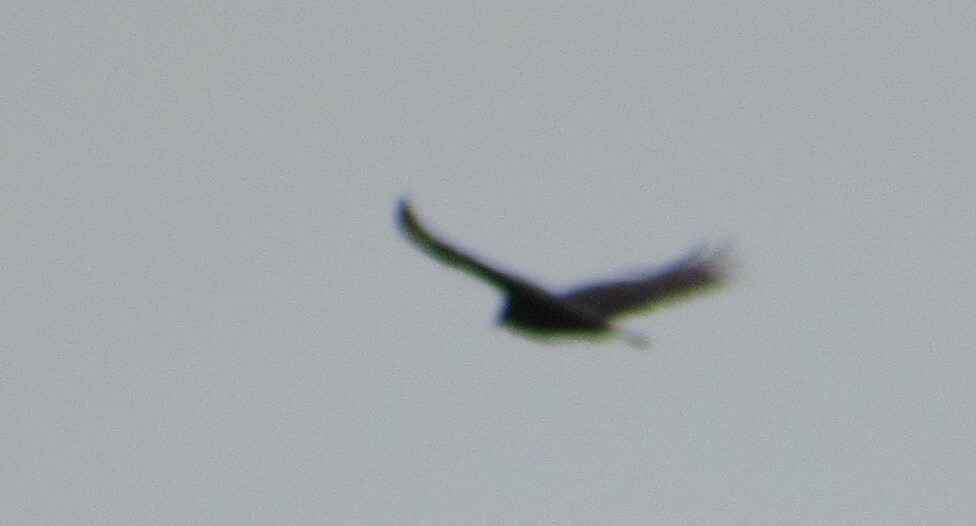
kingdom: Animalia
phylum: Chordata
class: Aves
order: Accipitriformes
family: Cathartidae
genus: Cathartes
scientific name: Cathartes aura
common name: Turkey vulture
